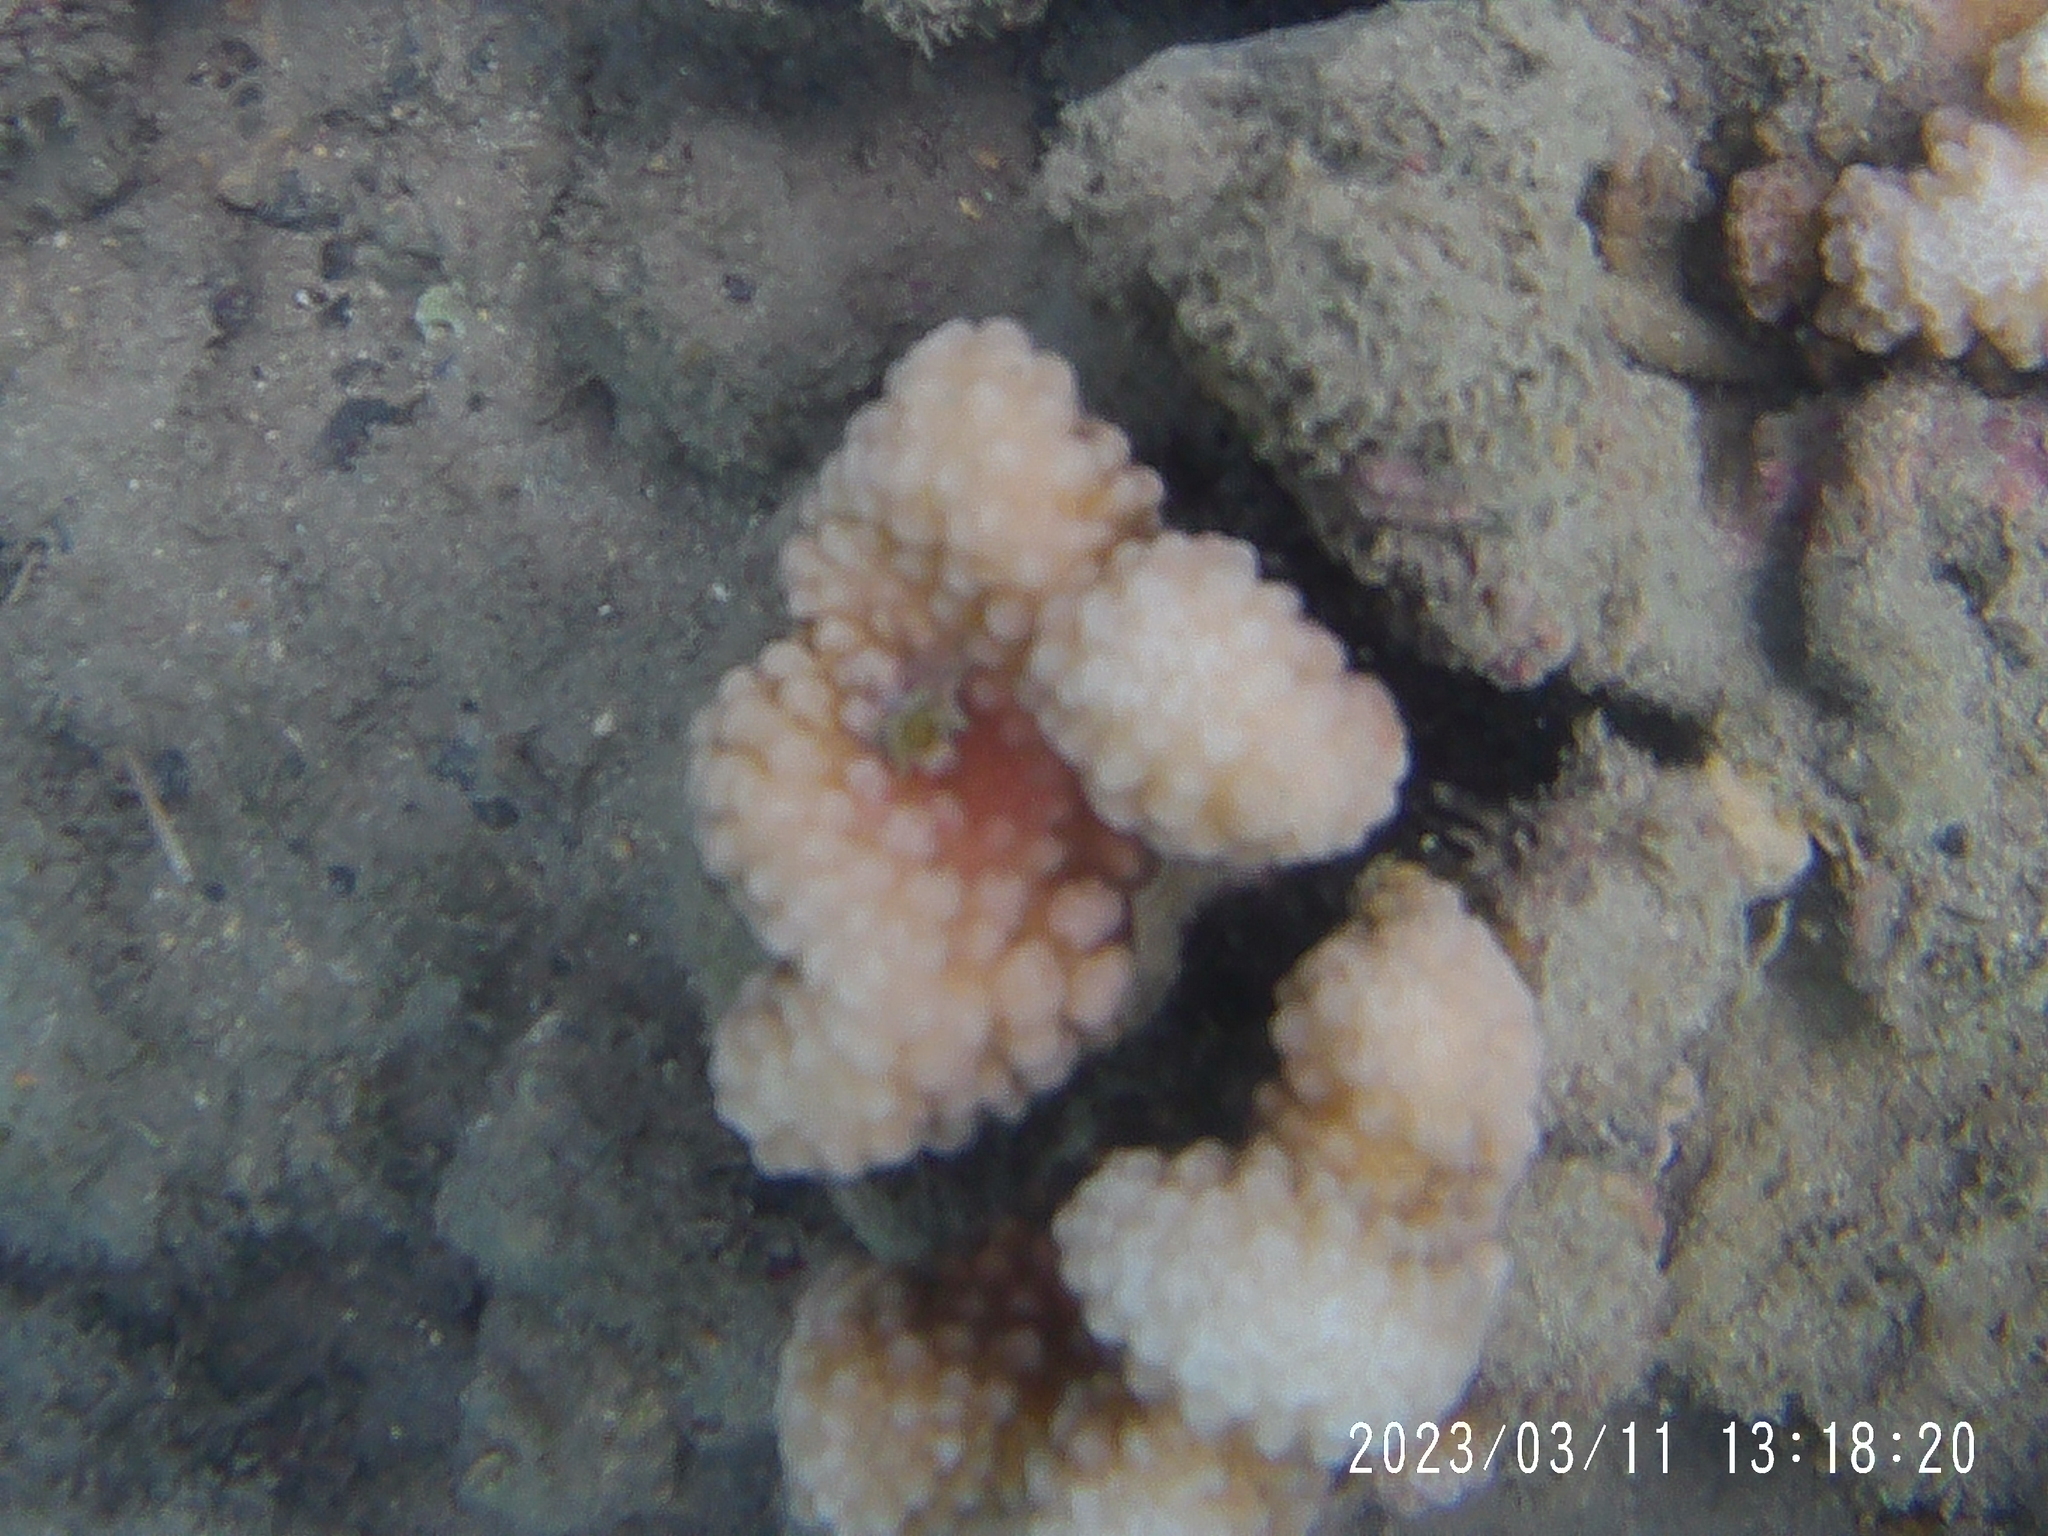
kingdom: Animalia
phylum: Cnidaria
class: Anthozoa
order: Scleractinia
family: Pocilloporidae
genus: Pocillopora
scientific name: Pocillopora meandrina
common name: Cauliflower coral
